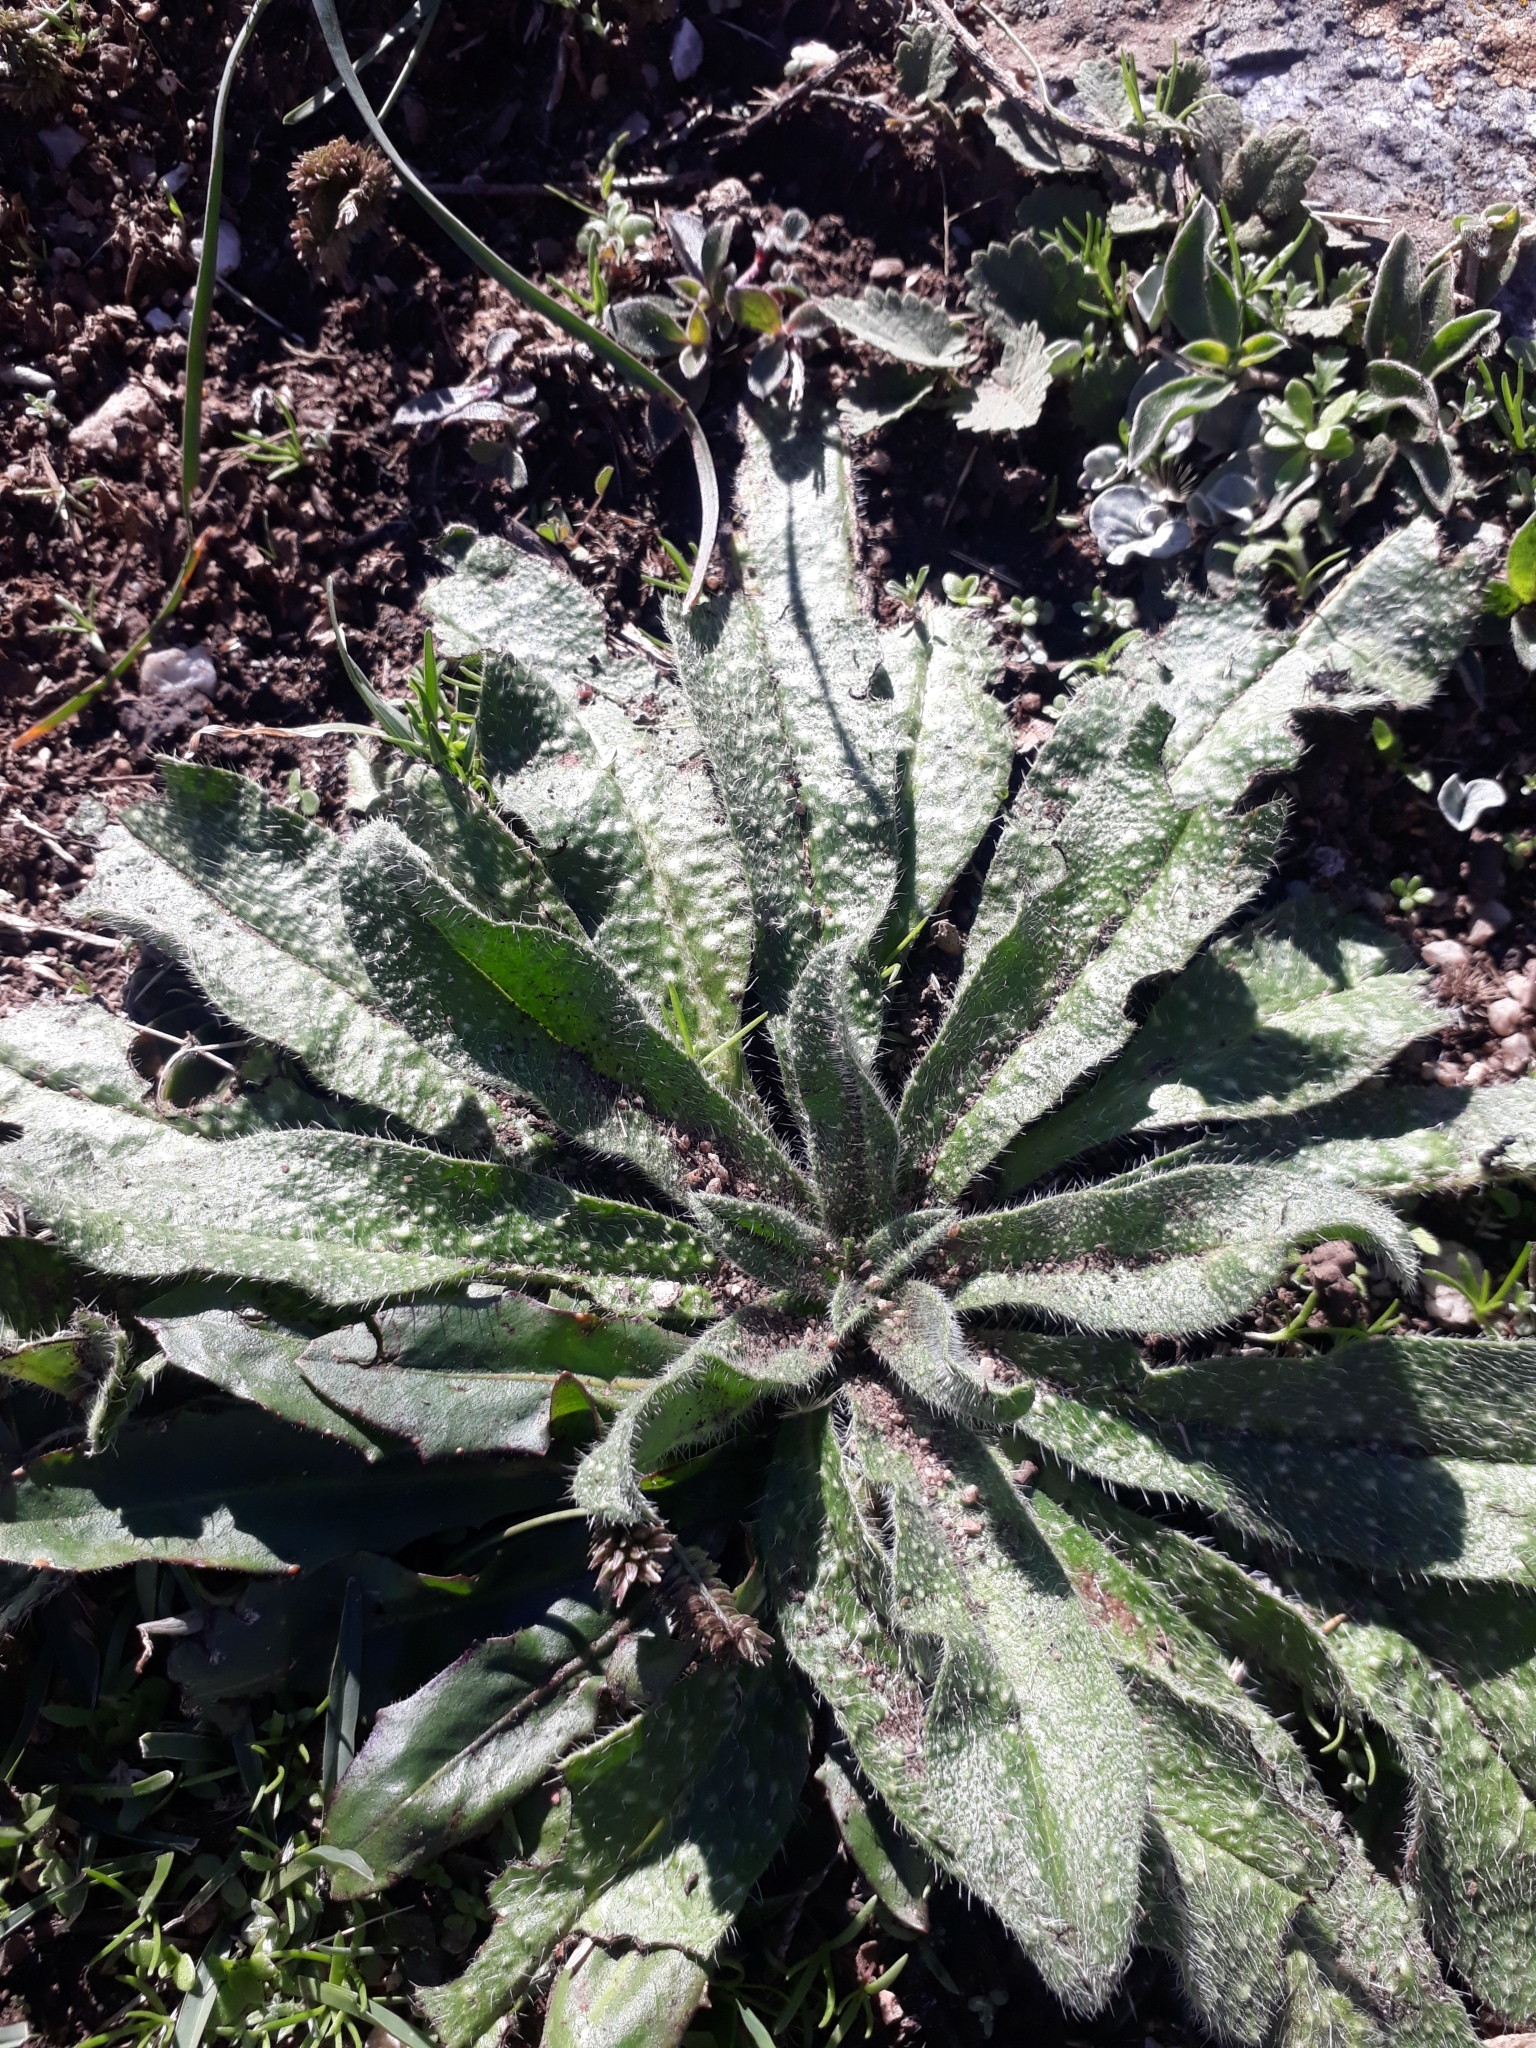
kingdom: Plantae
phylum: Tracheophyta
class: Magnoliopsida
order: Boraginales
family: Boraginaceae
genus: Echium
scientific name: Echium vulgare
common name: Common viper's bugloss
